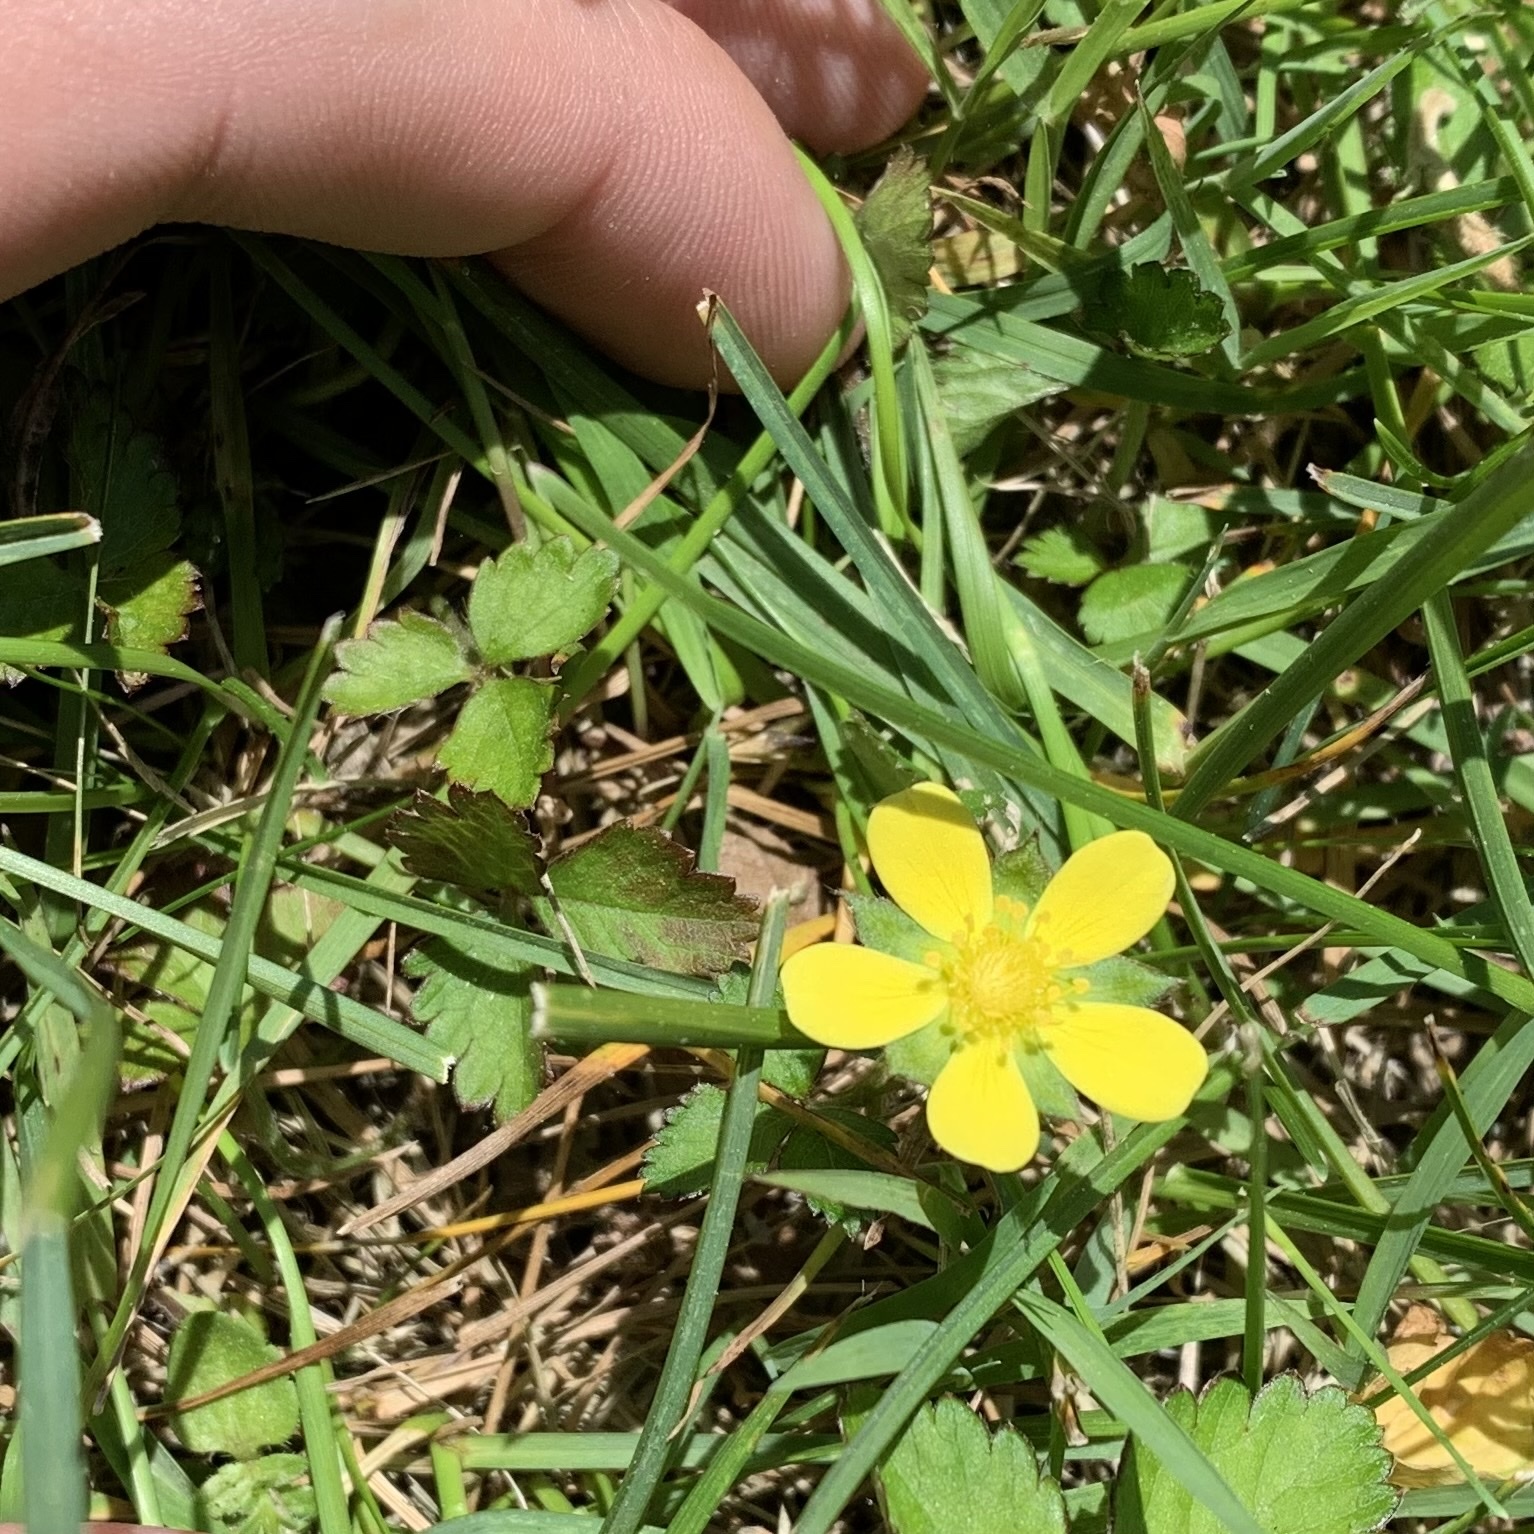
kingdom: Plantae
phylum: Tracheophyta
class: Magnoliopsida
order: Rosales
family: Rosaceae
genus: Potentilla
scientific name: Potentilla indica
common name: Yellow-flowered strawberry
